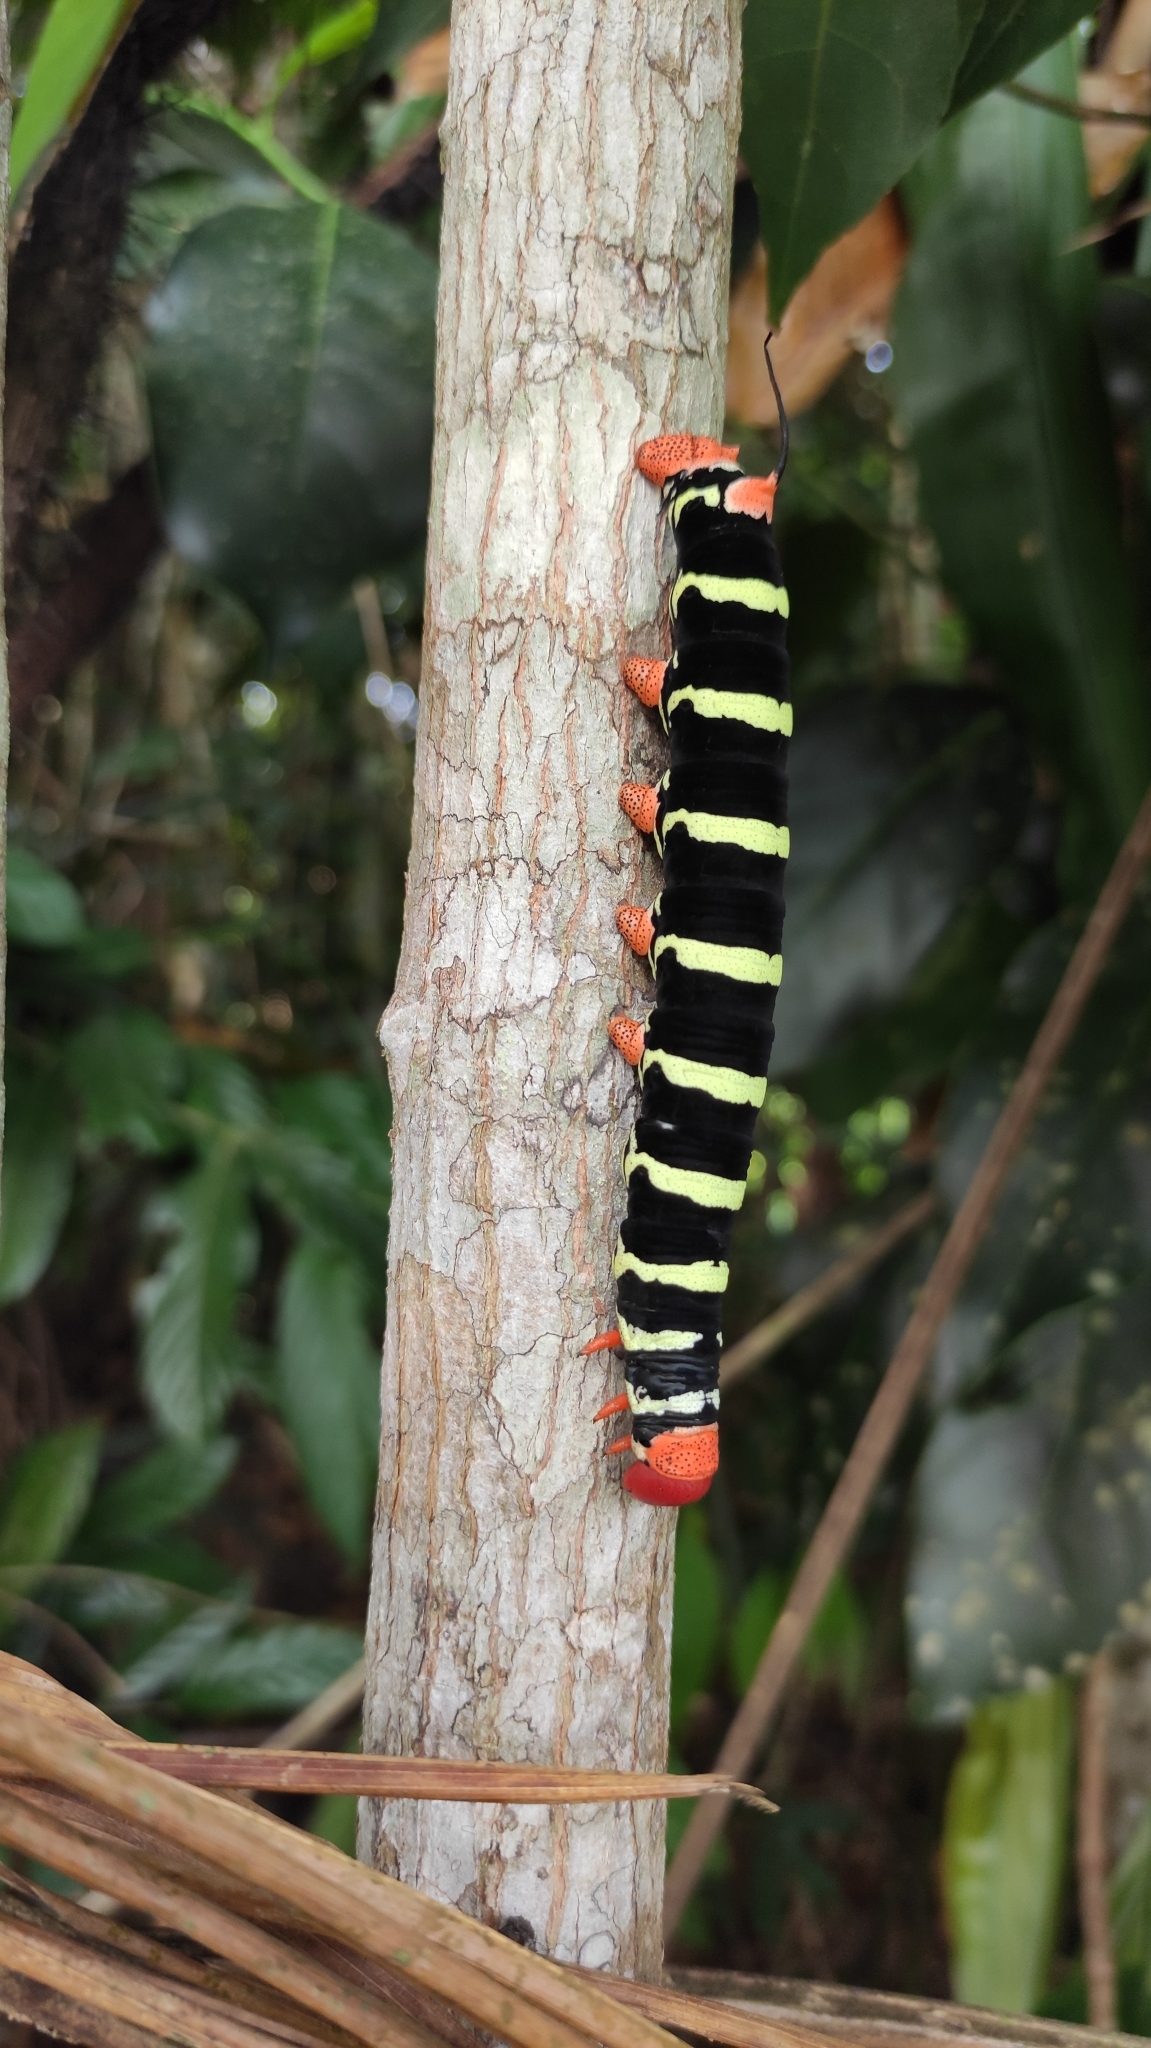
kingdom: Animalia
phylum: Arthropoda
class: Insecta
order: Lepidoptera
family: Sphingidae
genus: Pseudosphinx
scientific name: Pseudosphinx tetrio
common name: Tetrio sphinx
